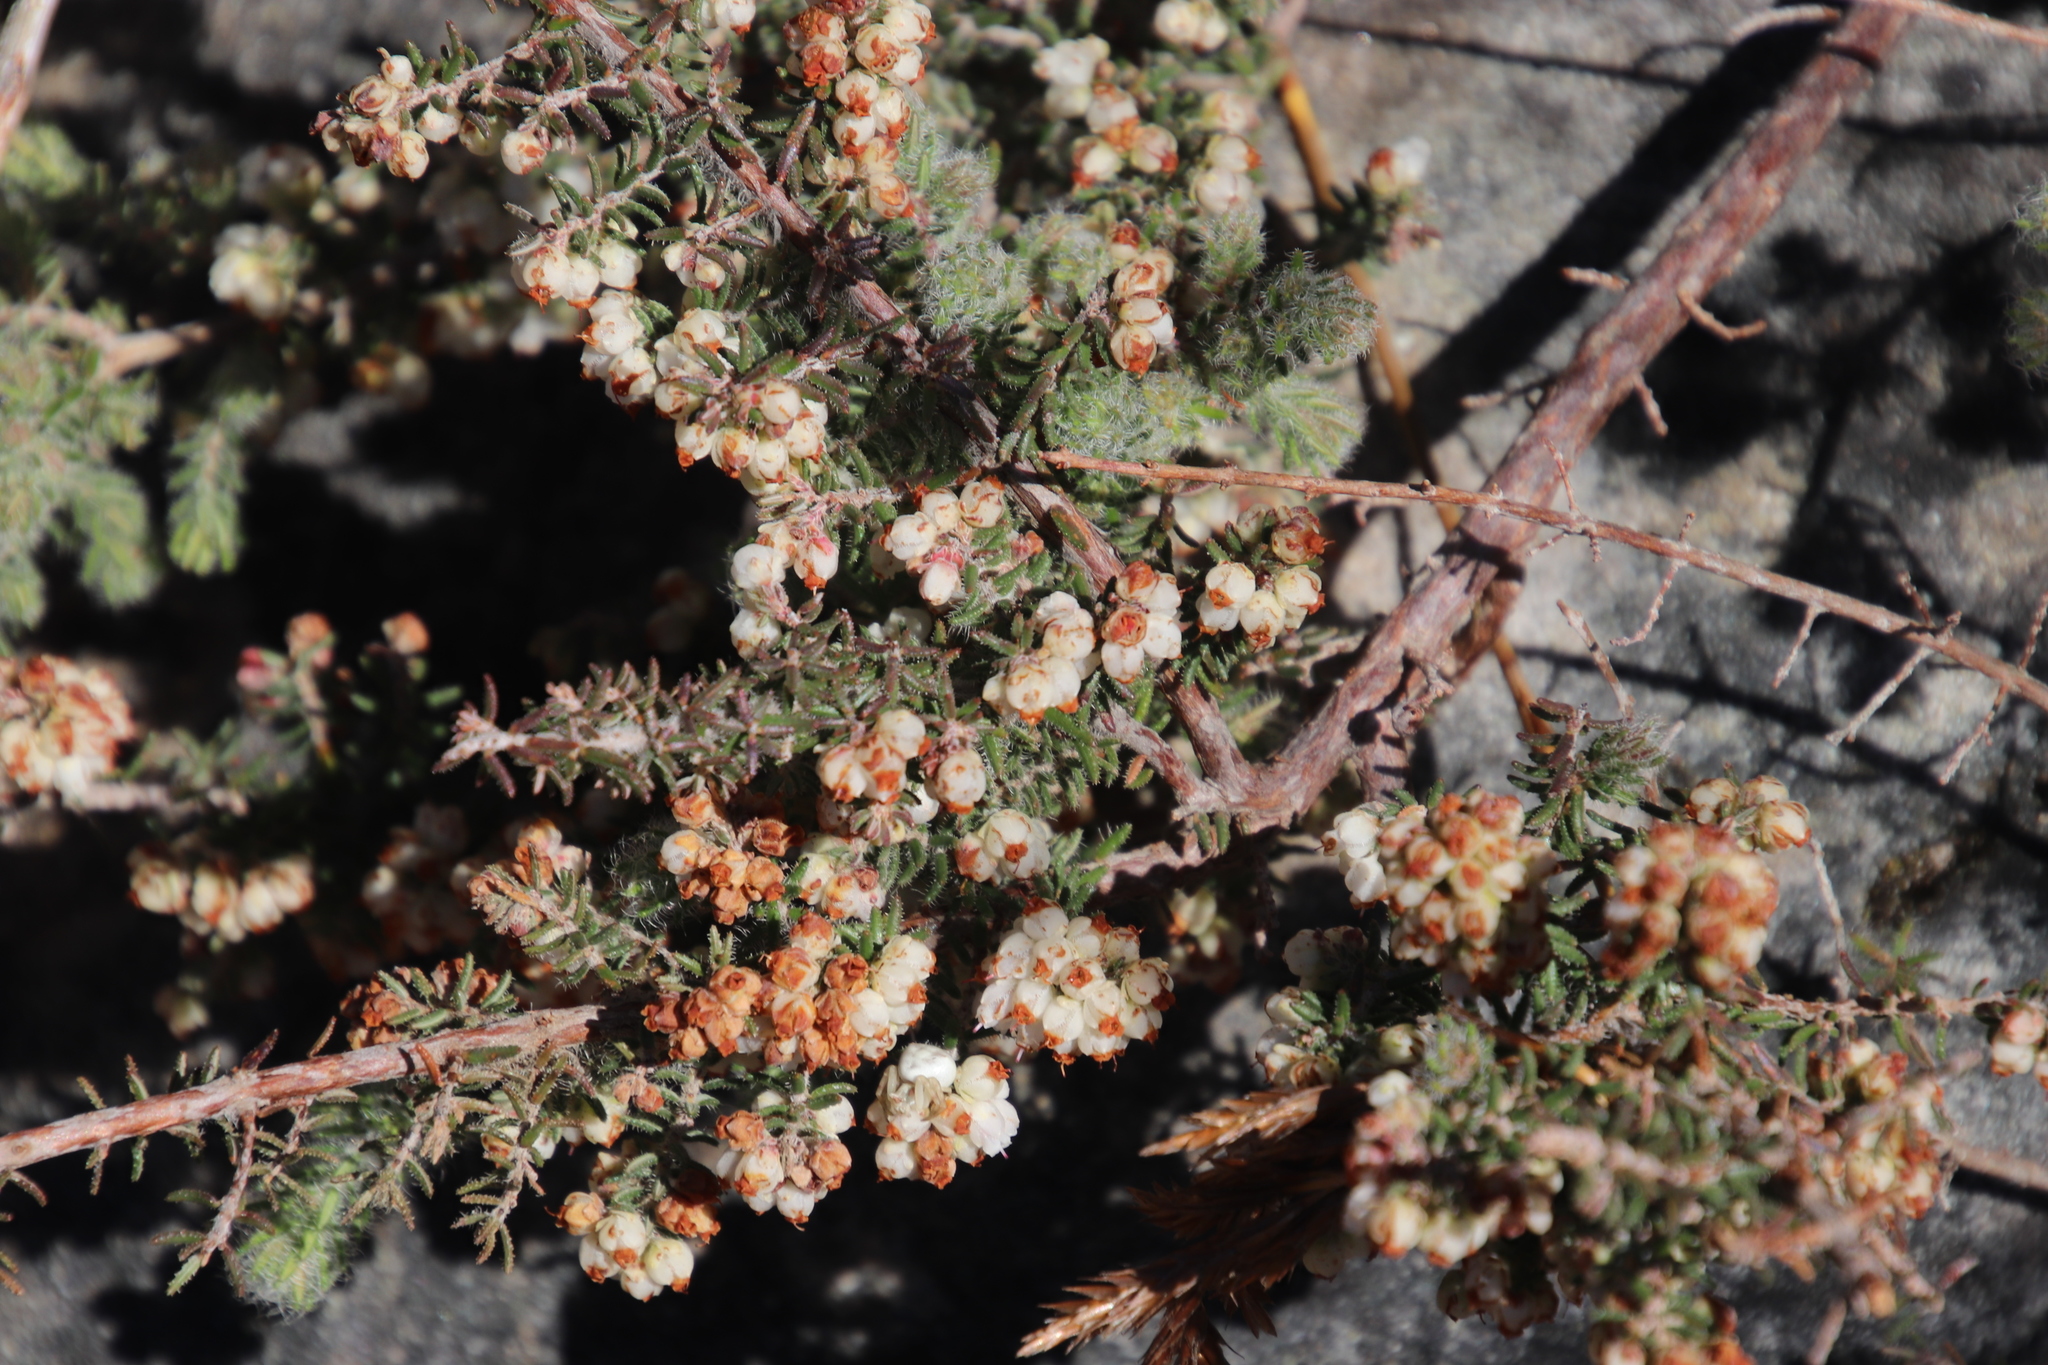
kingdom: Plantae
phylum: Tracheophyta
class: Magnoliopsida
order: Ericales
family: Ericaceae
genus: Erica
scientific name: Erica totta
